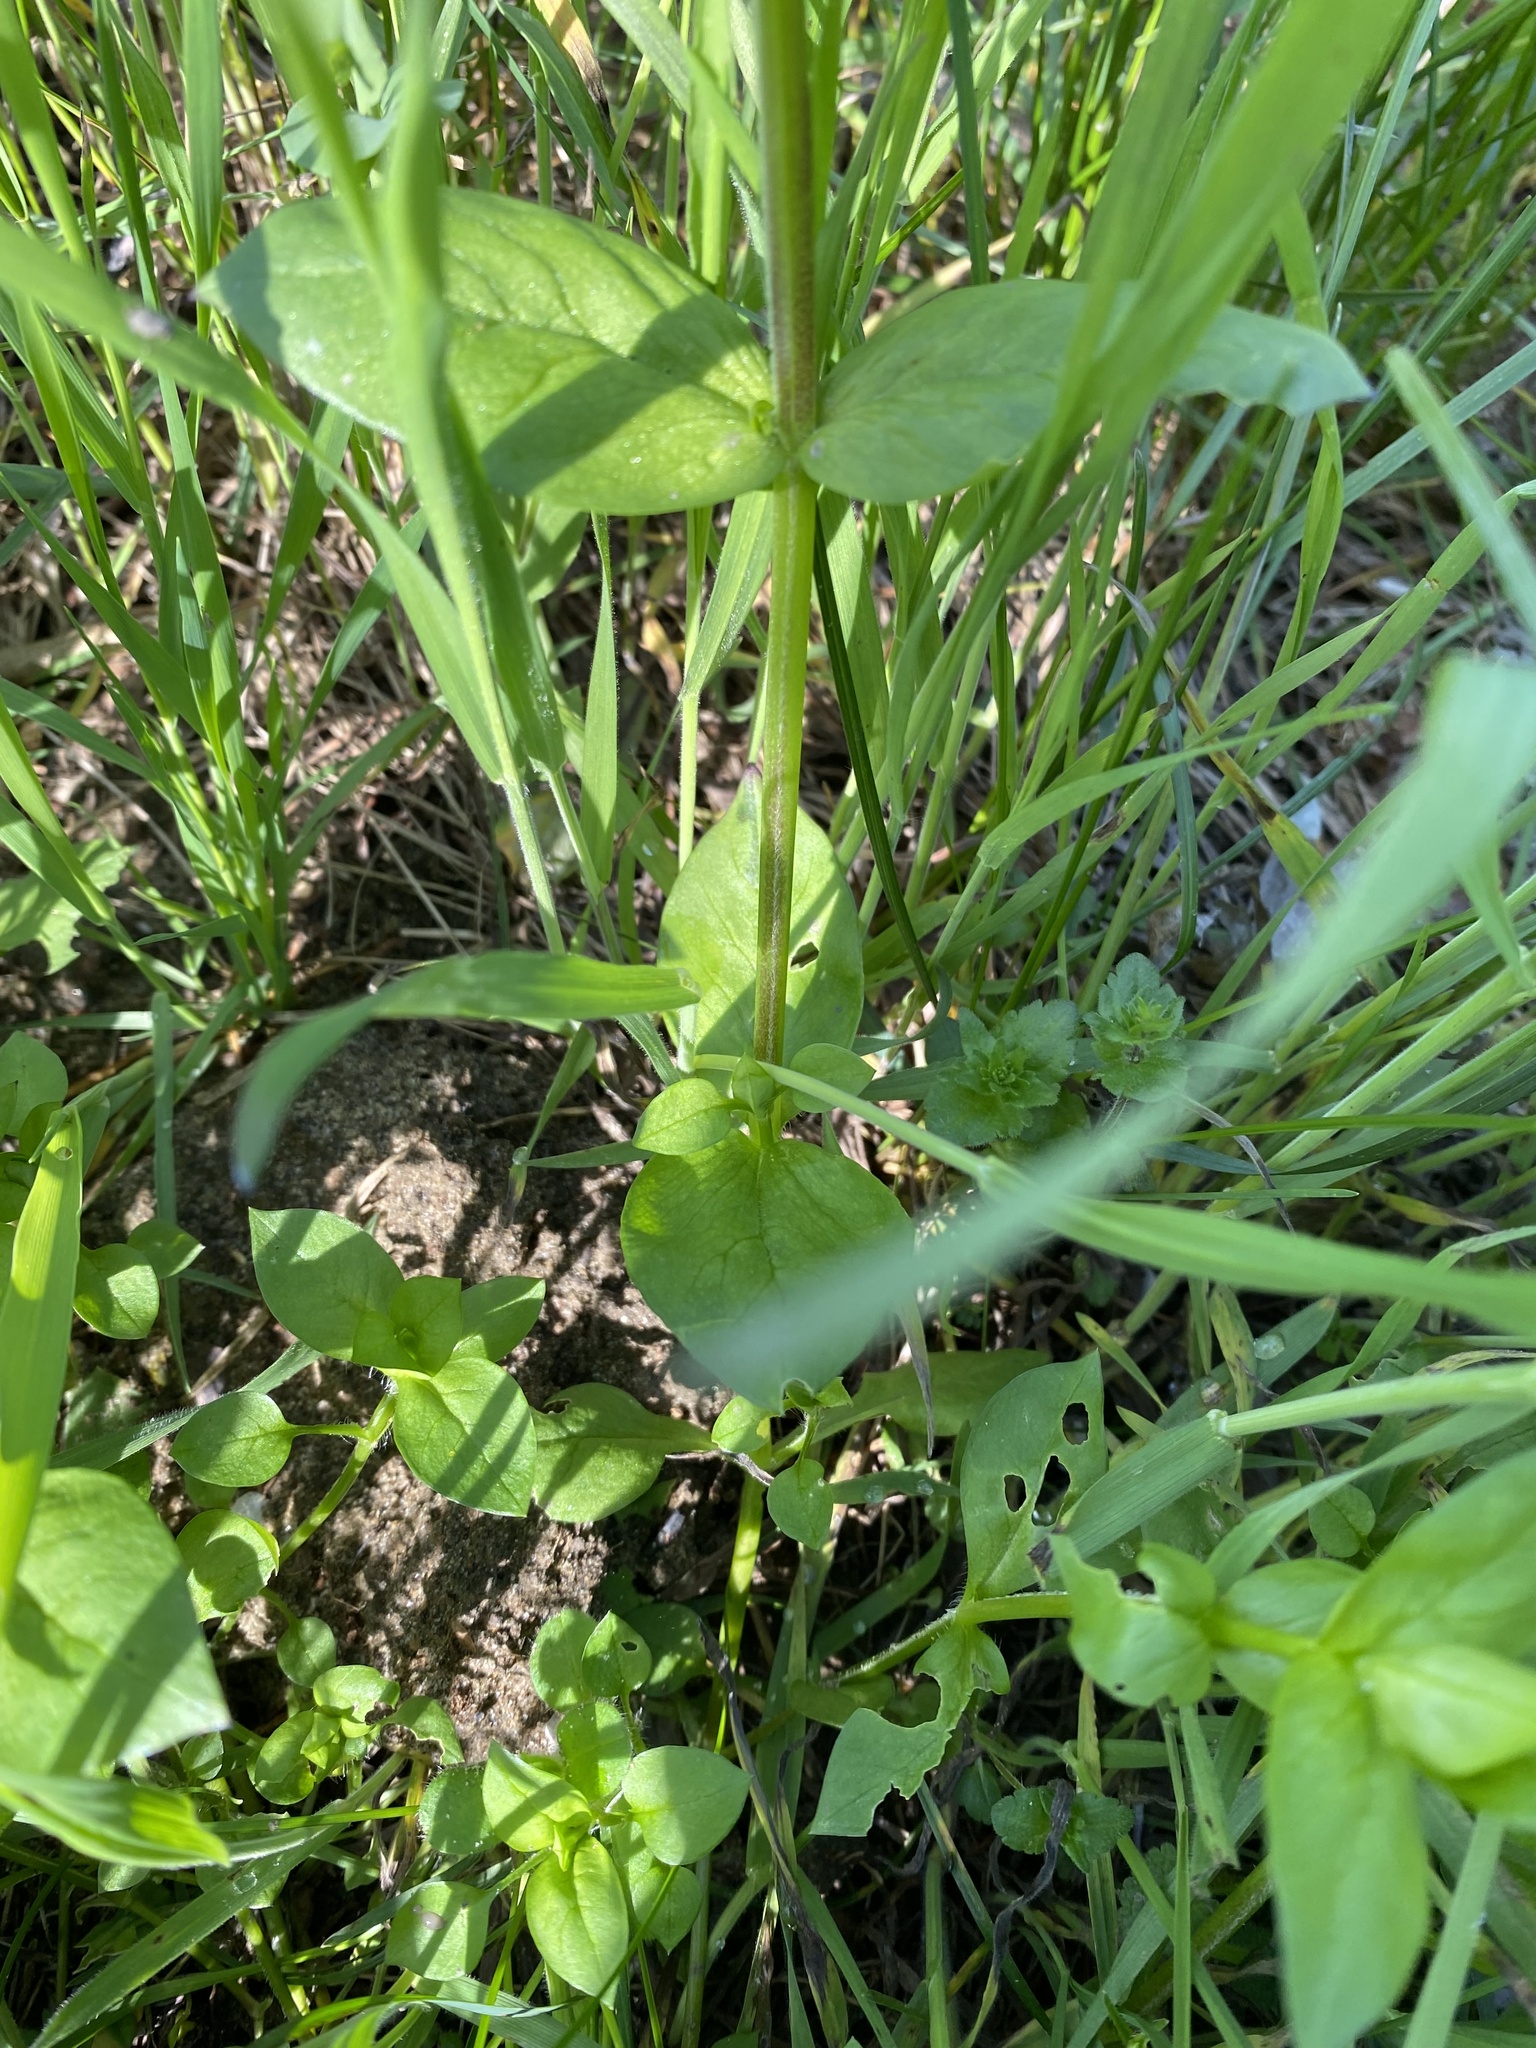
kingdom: Plantae
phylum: Tracheophyta
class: Magnoliopsida
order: Caryophyllales
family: Caryophyllaceae
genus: Stellaria
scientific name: Stellaria media
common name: Common chickweed
